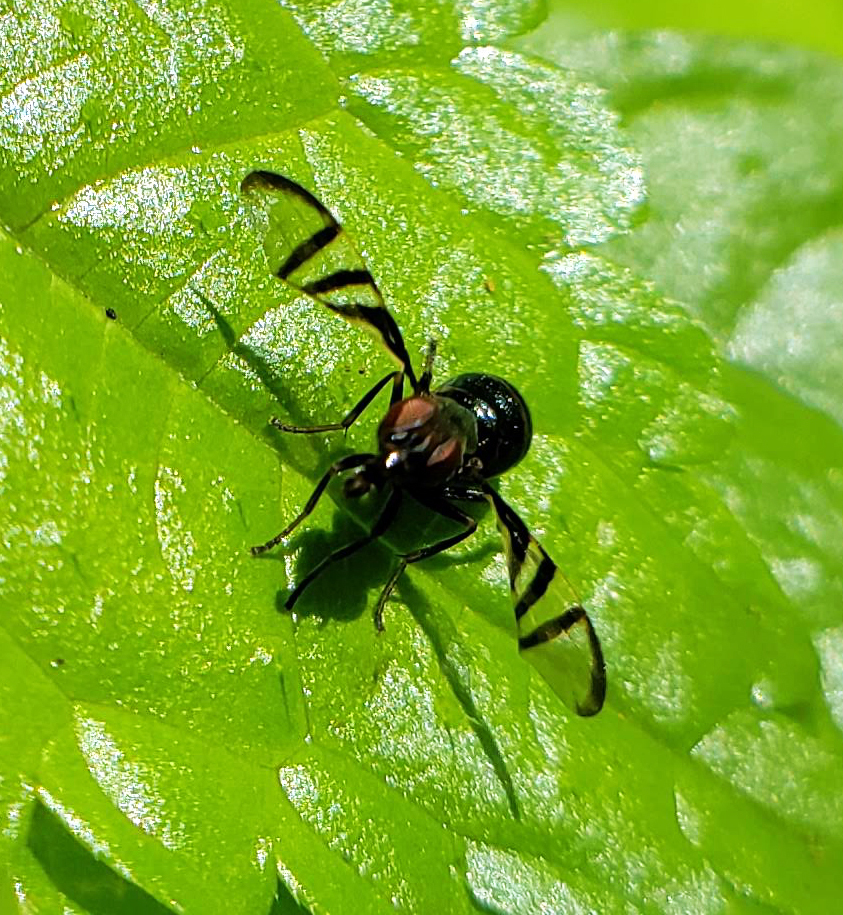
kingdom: Animalia
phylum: Arthropoda
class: Insecta
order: Diptera
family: Platystomatidae
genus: Rivellia
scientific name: Rivellia
